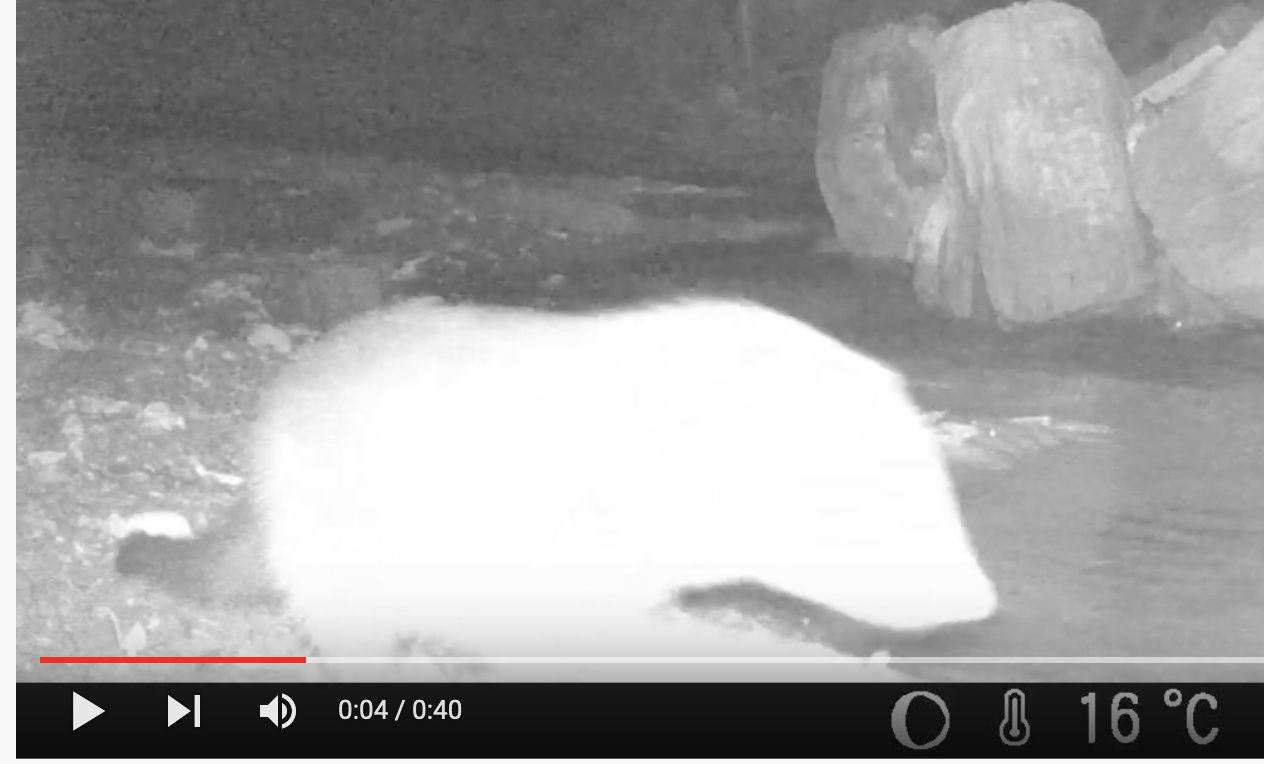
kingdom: Animalia
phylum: Chordata
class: Mammalia
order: Carnivora
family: Herpestidae
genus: Atilax
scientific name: Atilax paludinosus
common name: Marsh mongoose
